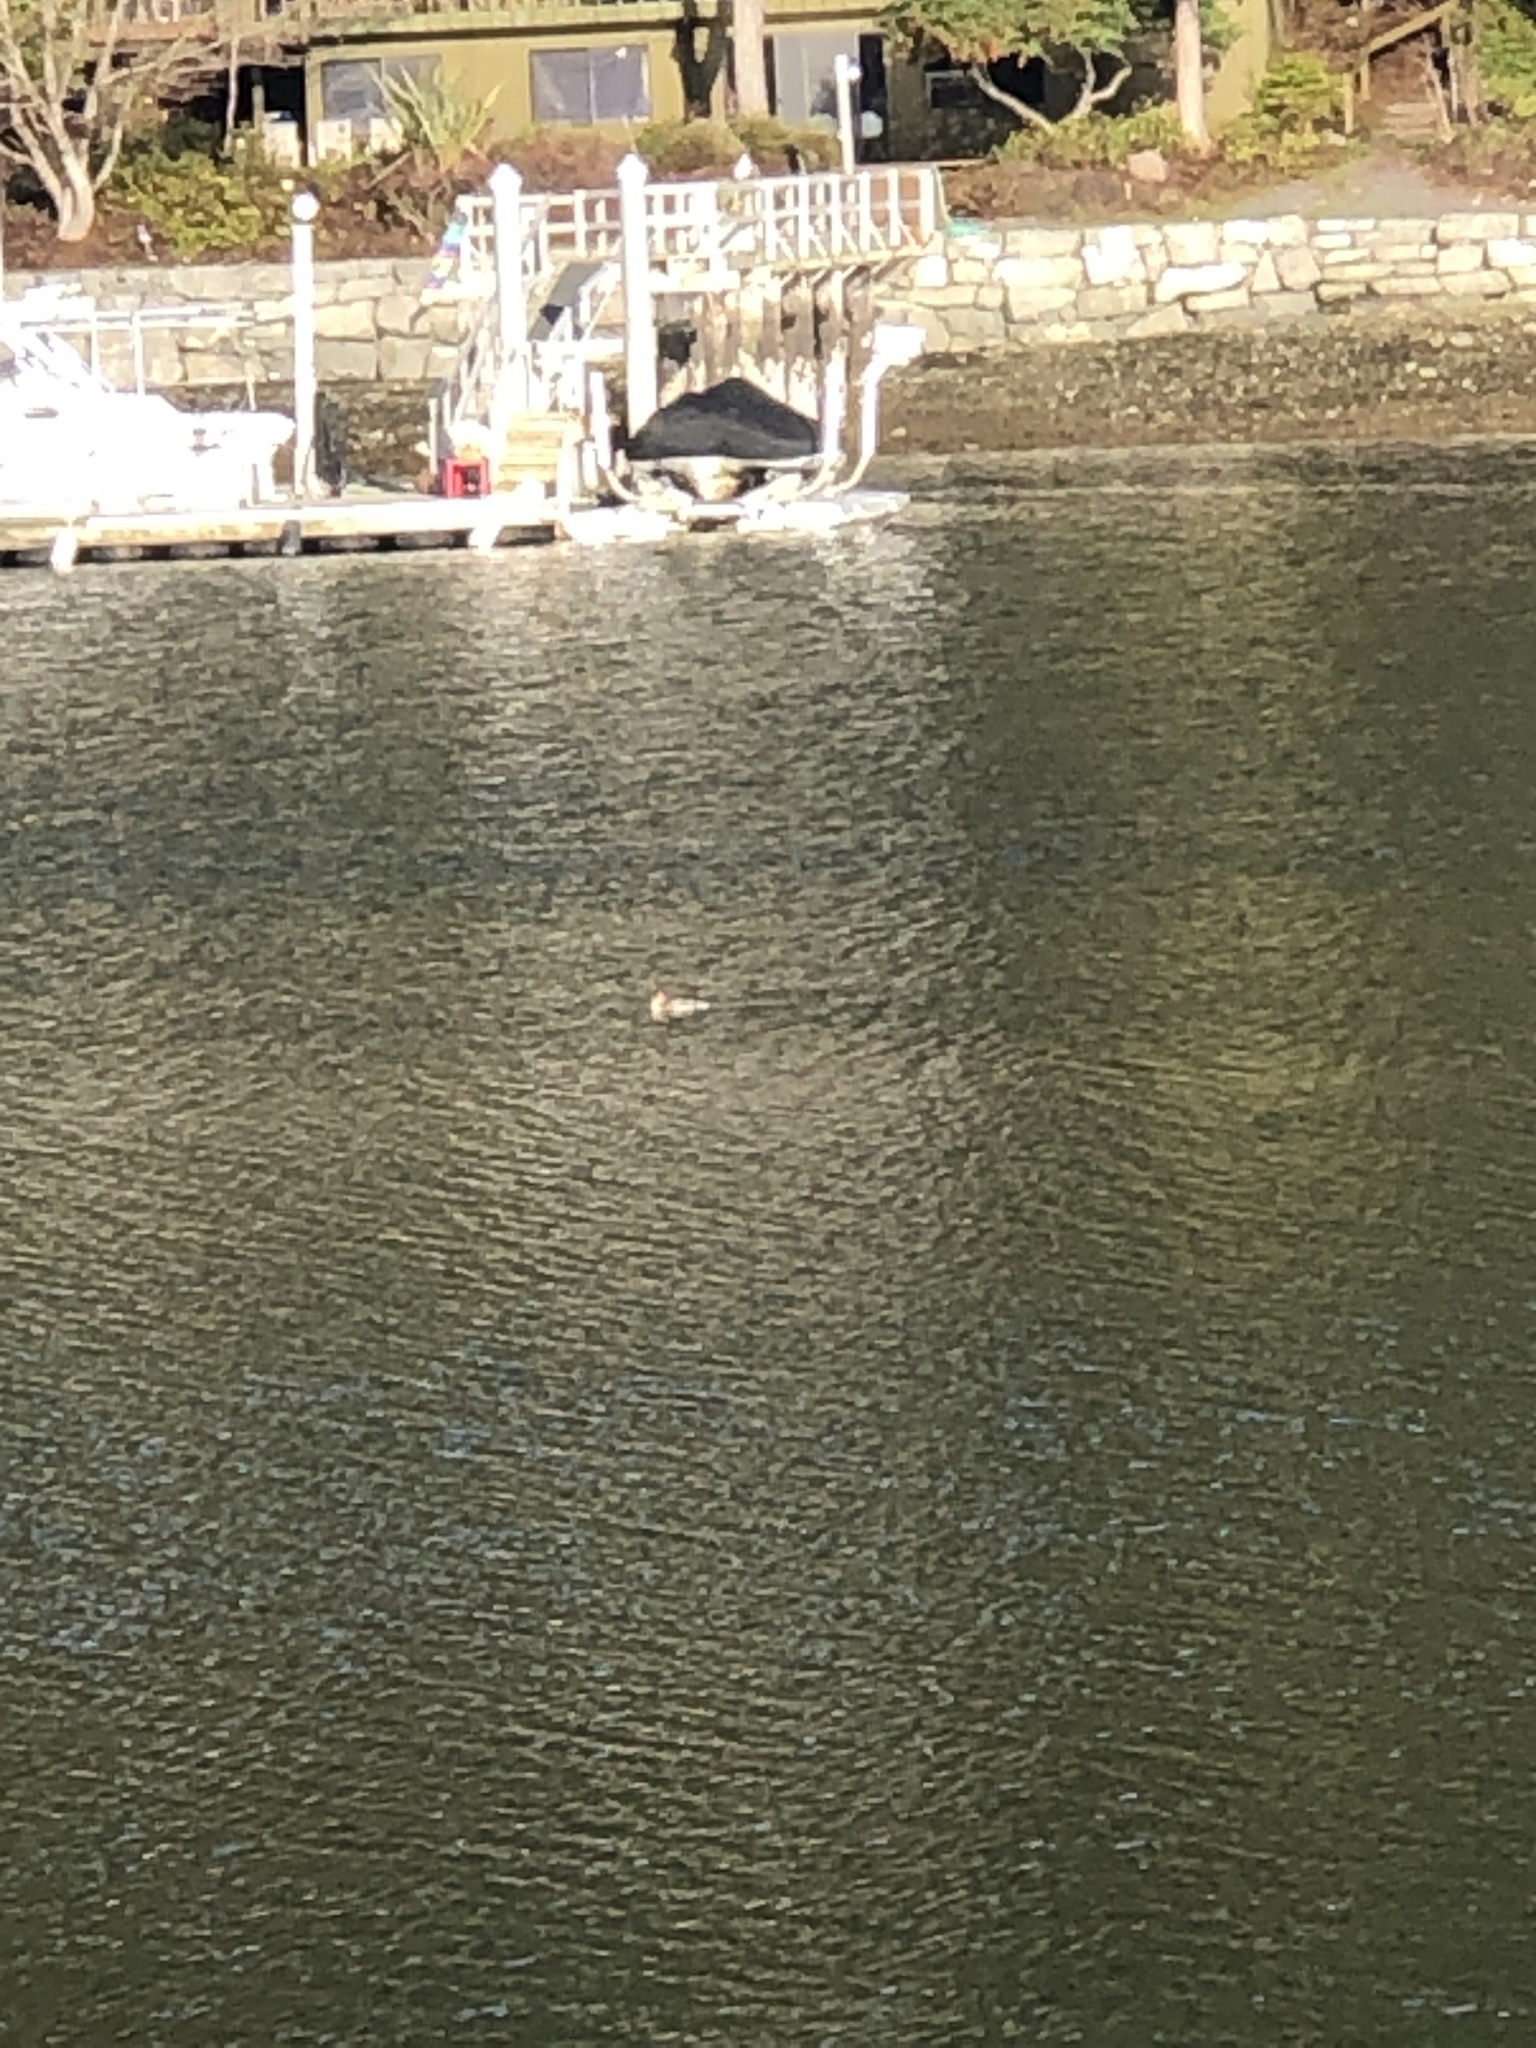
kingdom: Animalia
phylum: Chordata
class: Aves
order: Anseriformes
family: Anatidae
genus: Anas
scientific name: Anas platyrhynchos
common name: Mallard
